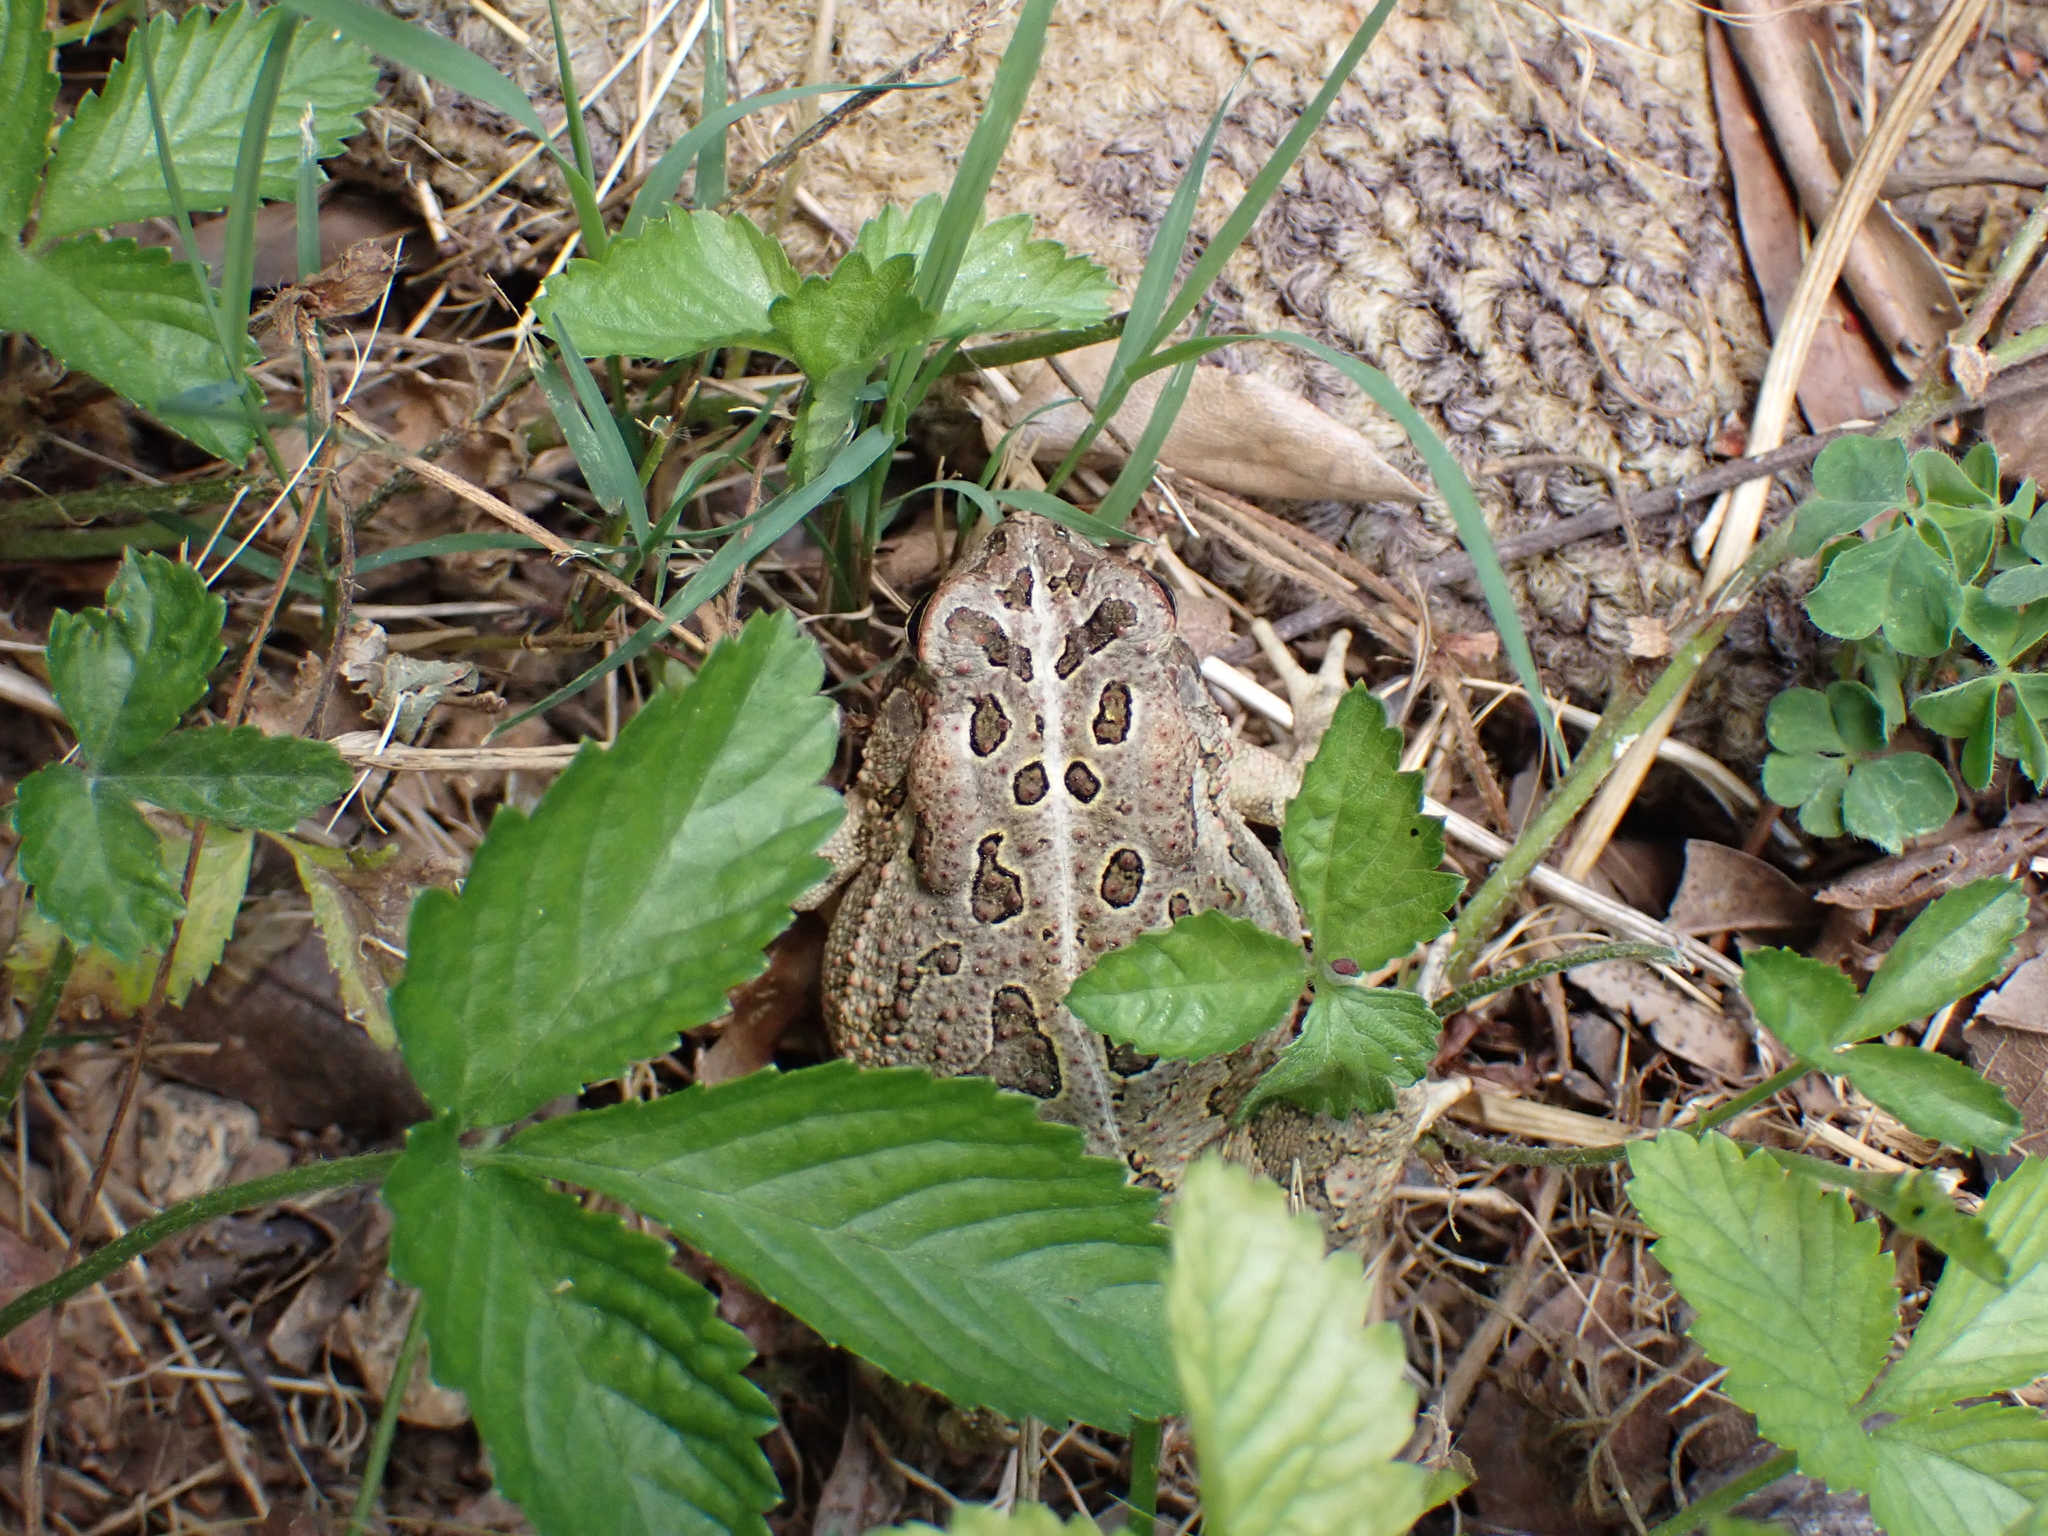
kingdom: Animalia
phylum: Chordata
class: Amphibia
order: Anura
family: Bufonidae
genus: Anaxyrus
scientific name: Anaxyrus fowleri
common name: Fowler's toad
